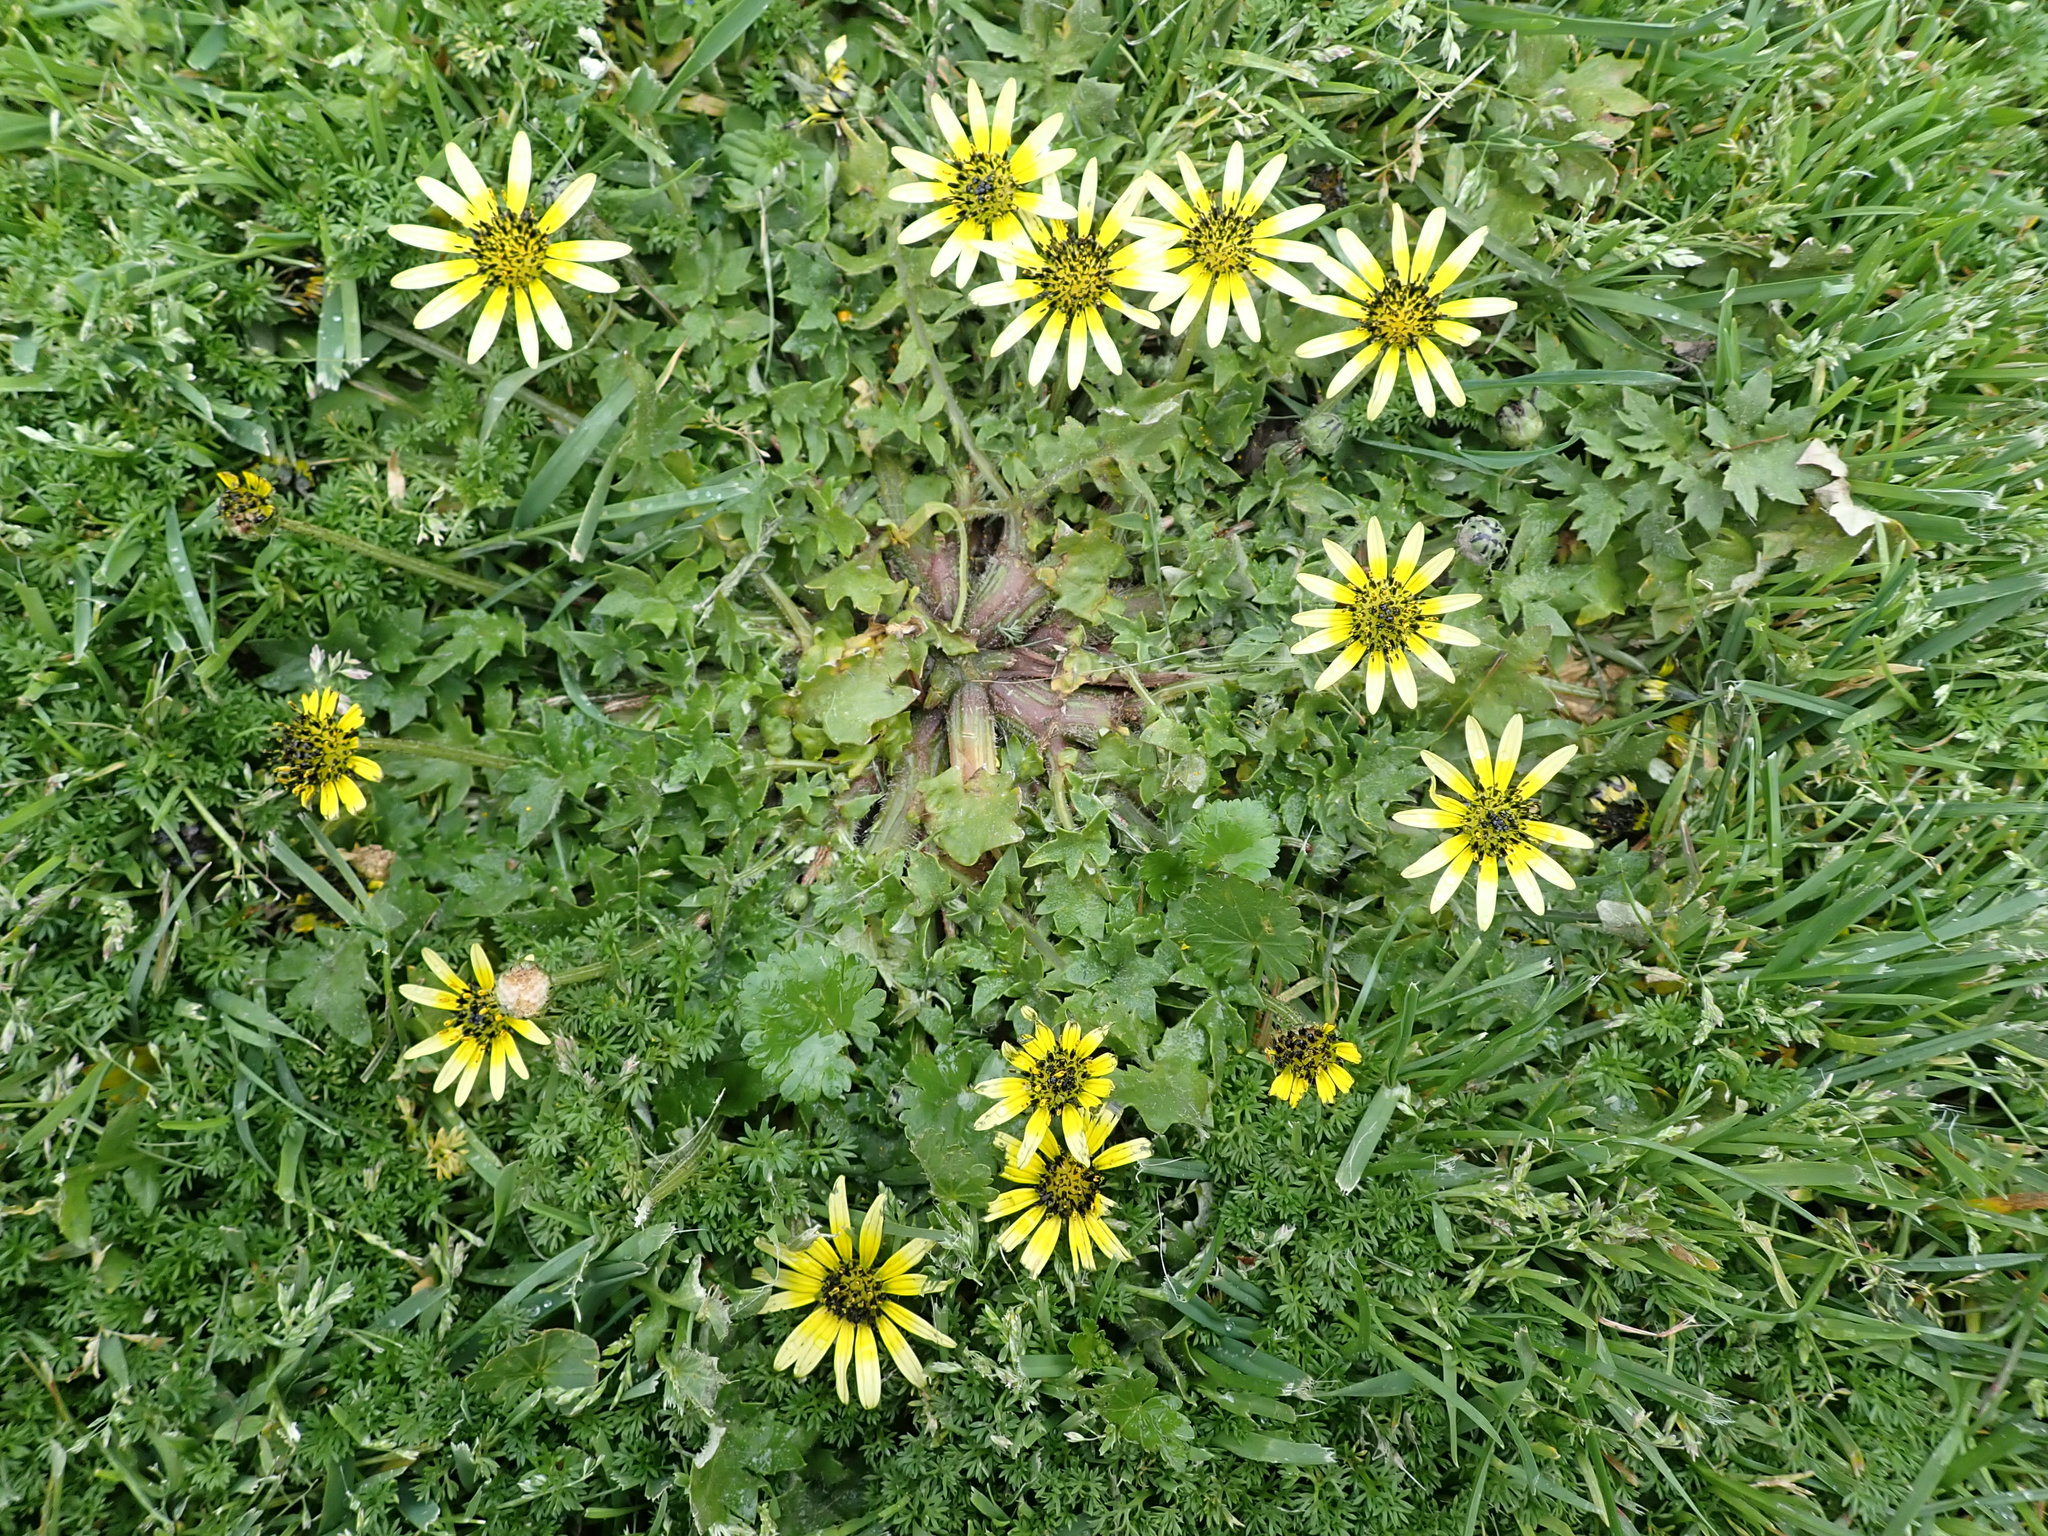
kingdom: Plantae
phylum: Tracheophyta
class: Magnoliopsida
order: Asterales
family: Asteraceae
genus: Arctotheca
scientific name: Arctotheca calendula
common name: Capeweed
